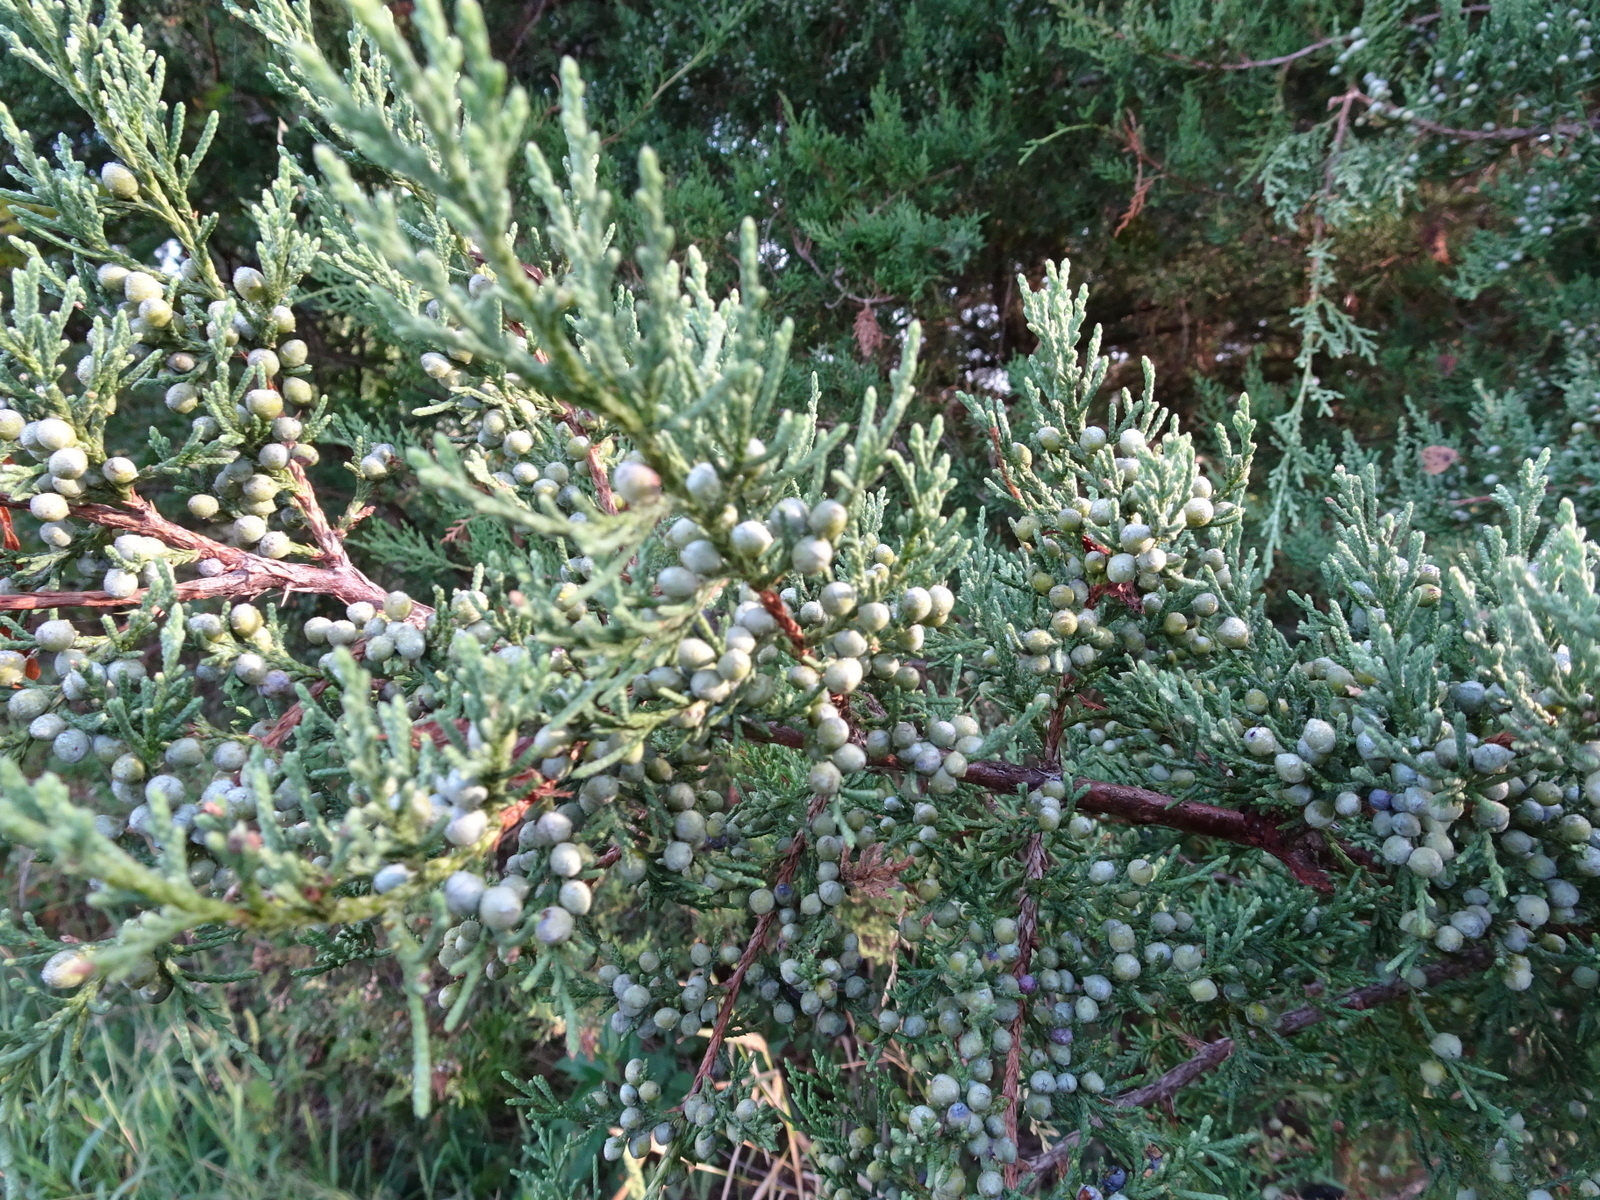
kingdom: Plantae
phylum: Tracheophyta
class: Pinopsida
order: Pinales
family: Cupressaceae
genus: Juniperus
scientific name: Juniperus virginiana
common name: Red juniper
